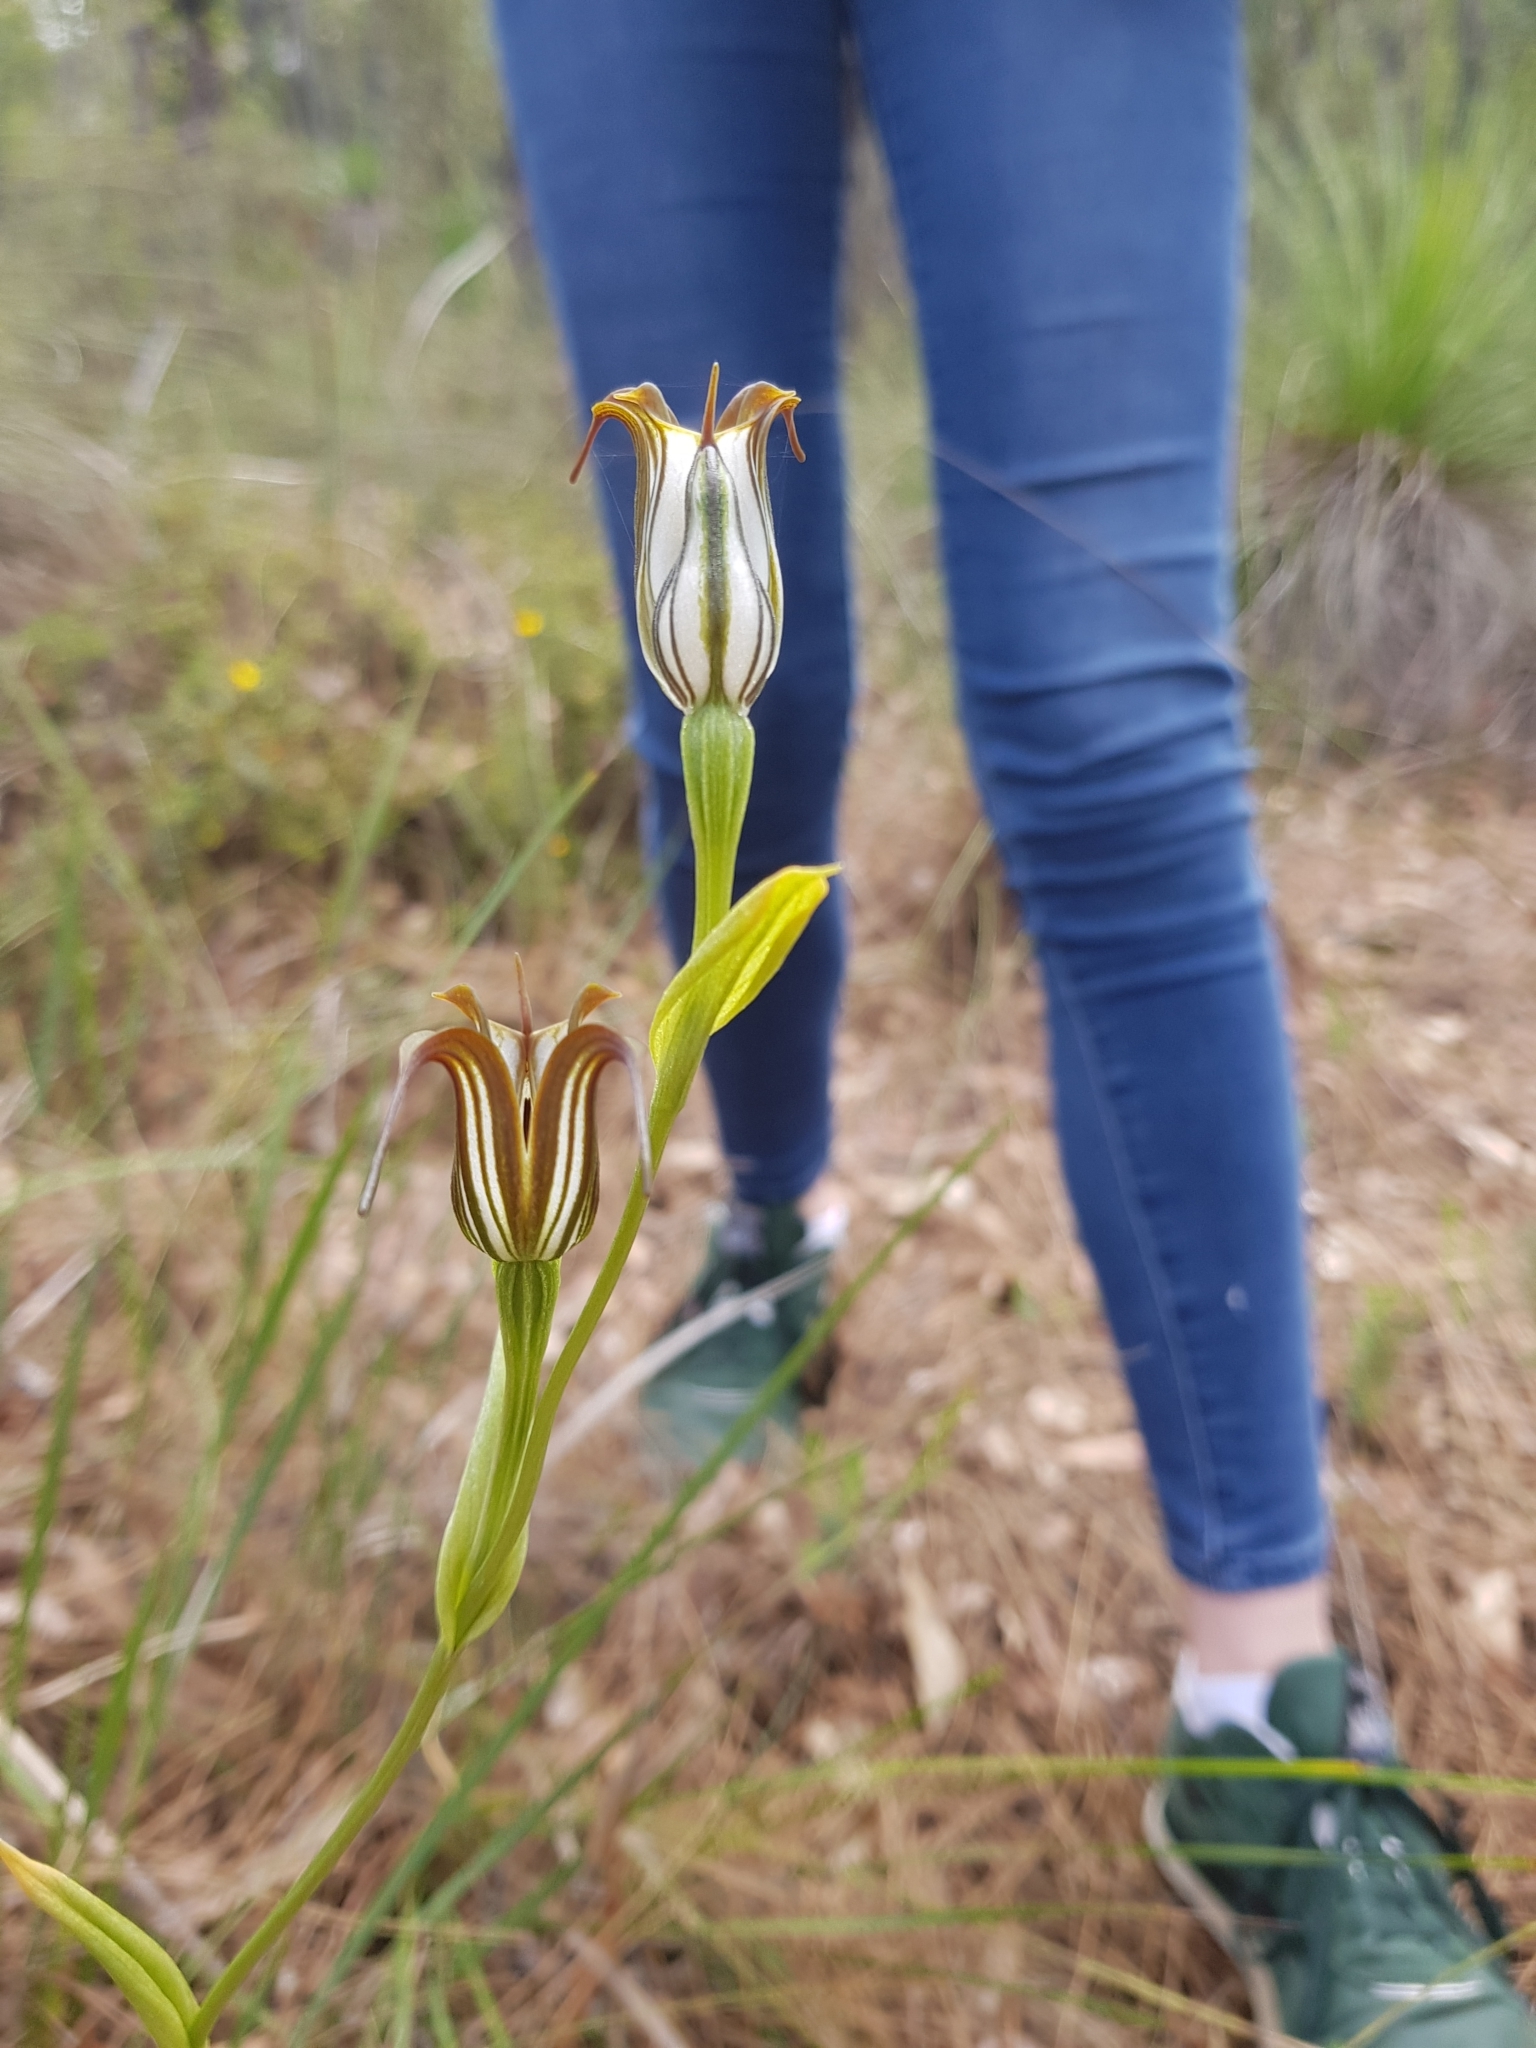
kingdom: Plantae
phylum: Tracheophyta
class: Liliopsida
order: Asparagales
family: Orchidaceae
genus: Pterostylis
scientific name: Pterostylis recurva
